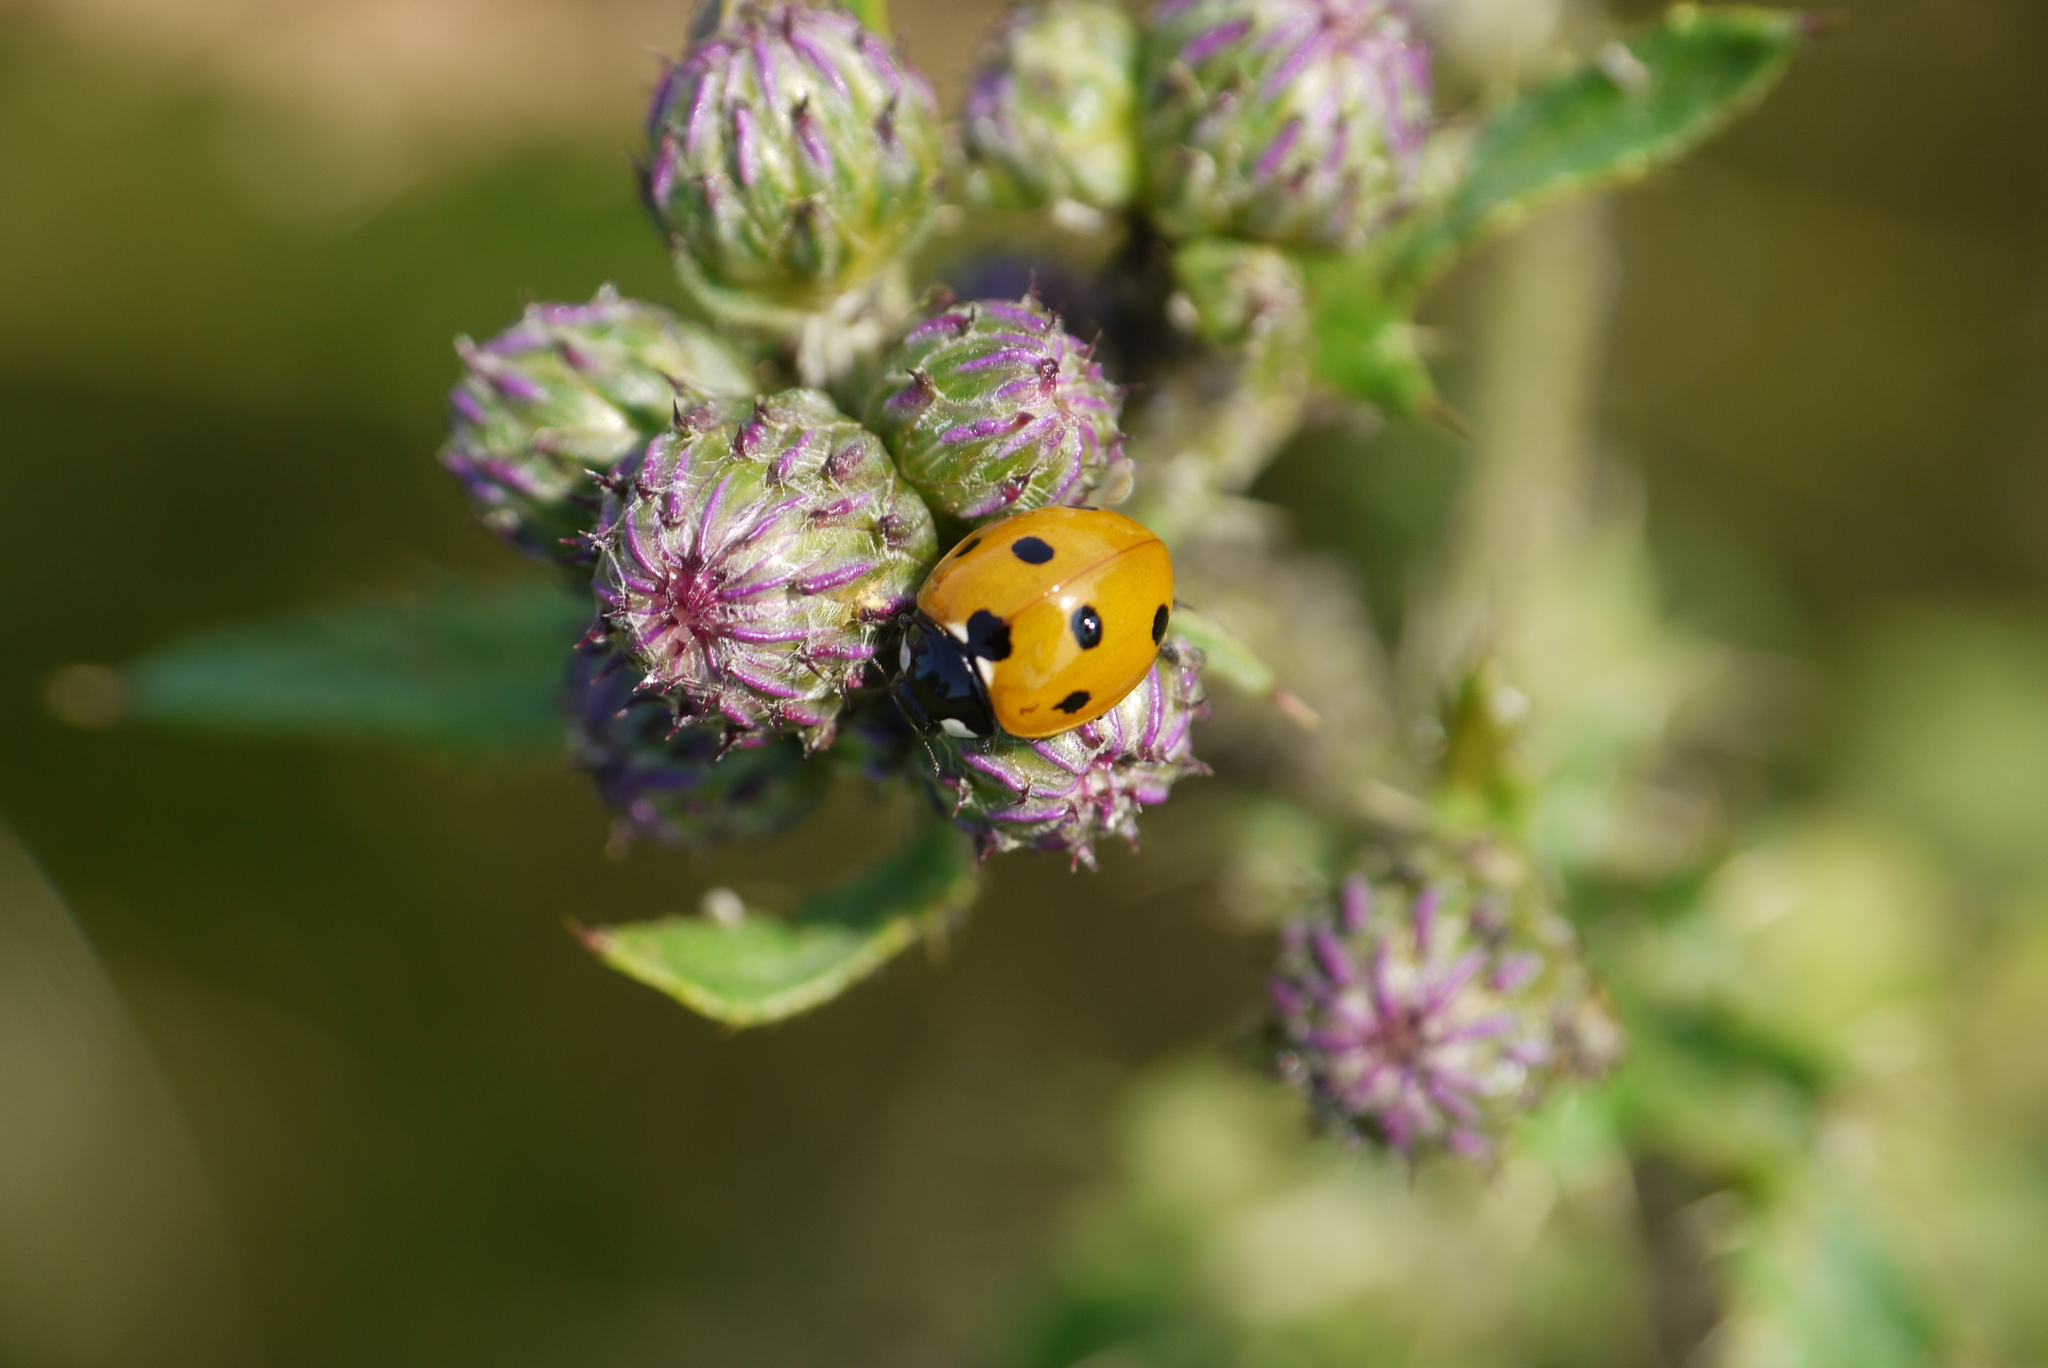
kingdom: Animalia
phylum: Arthropoda
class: Insecta
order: Coleoptera
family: Coccinellidae
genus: Coccinella
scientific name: Coccinella septempunctata
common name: Sevenspotted lady beetle
